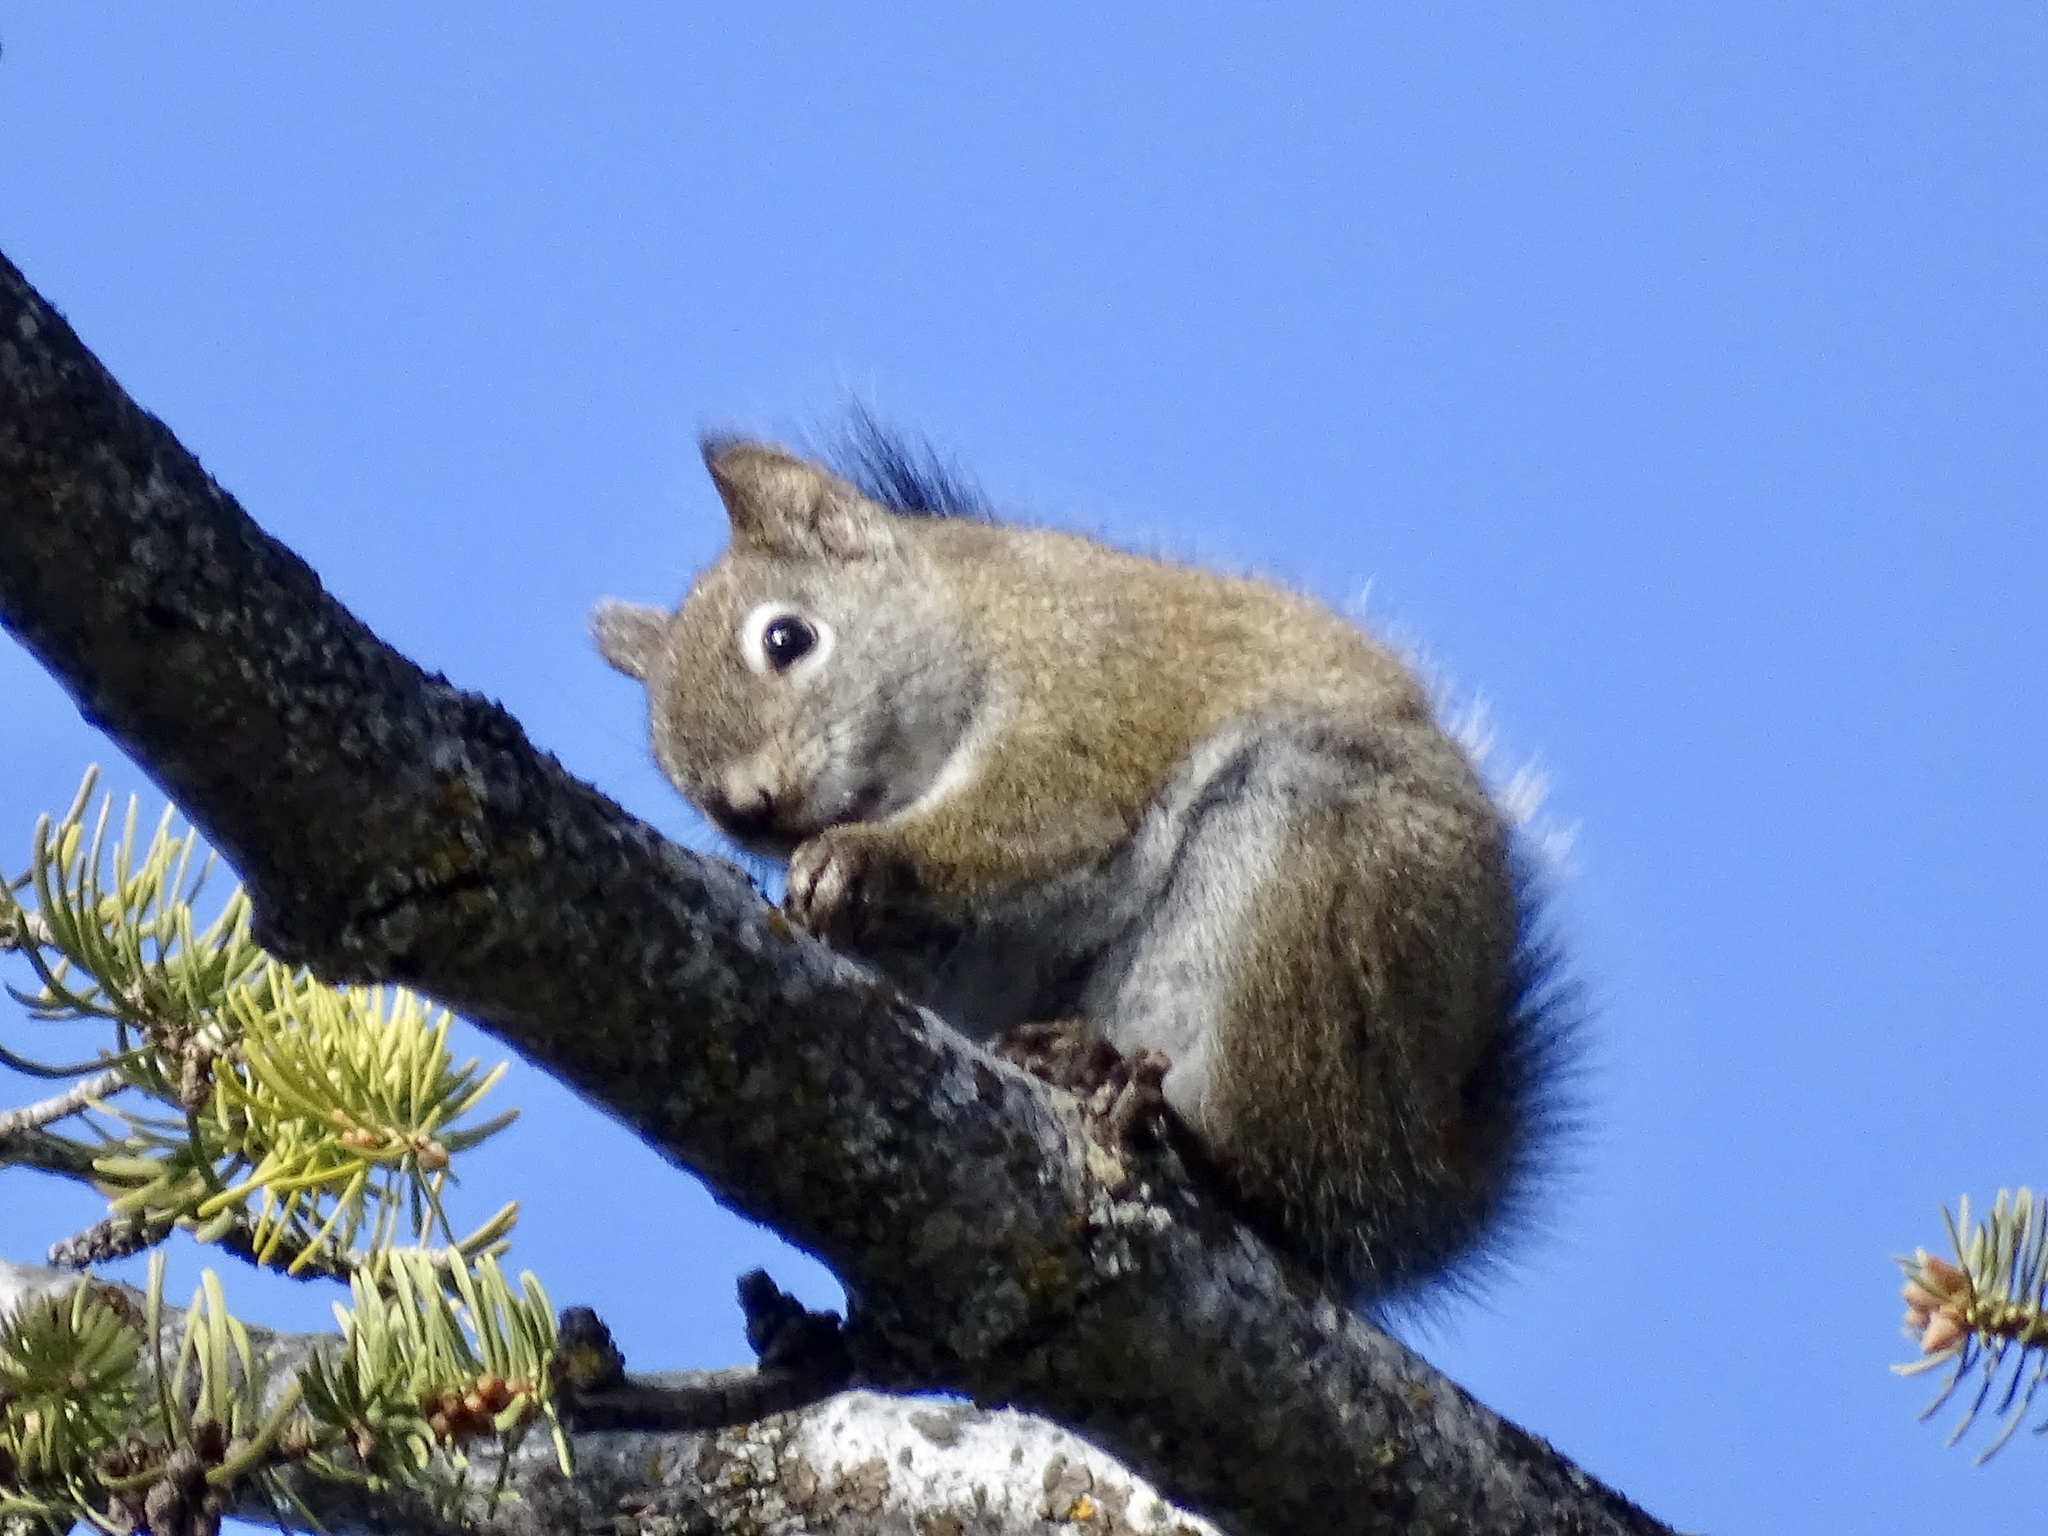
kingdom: Animalia
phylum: Chordata
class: Mammalia
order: Rodentia
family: Sciuridae
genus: Tamiasciurus
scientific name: Tamiasciurus hudsonicus
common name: Red squirrel
